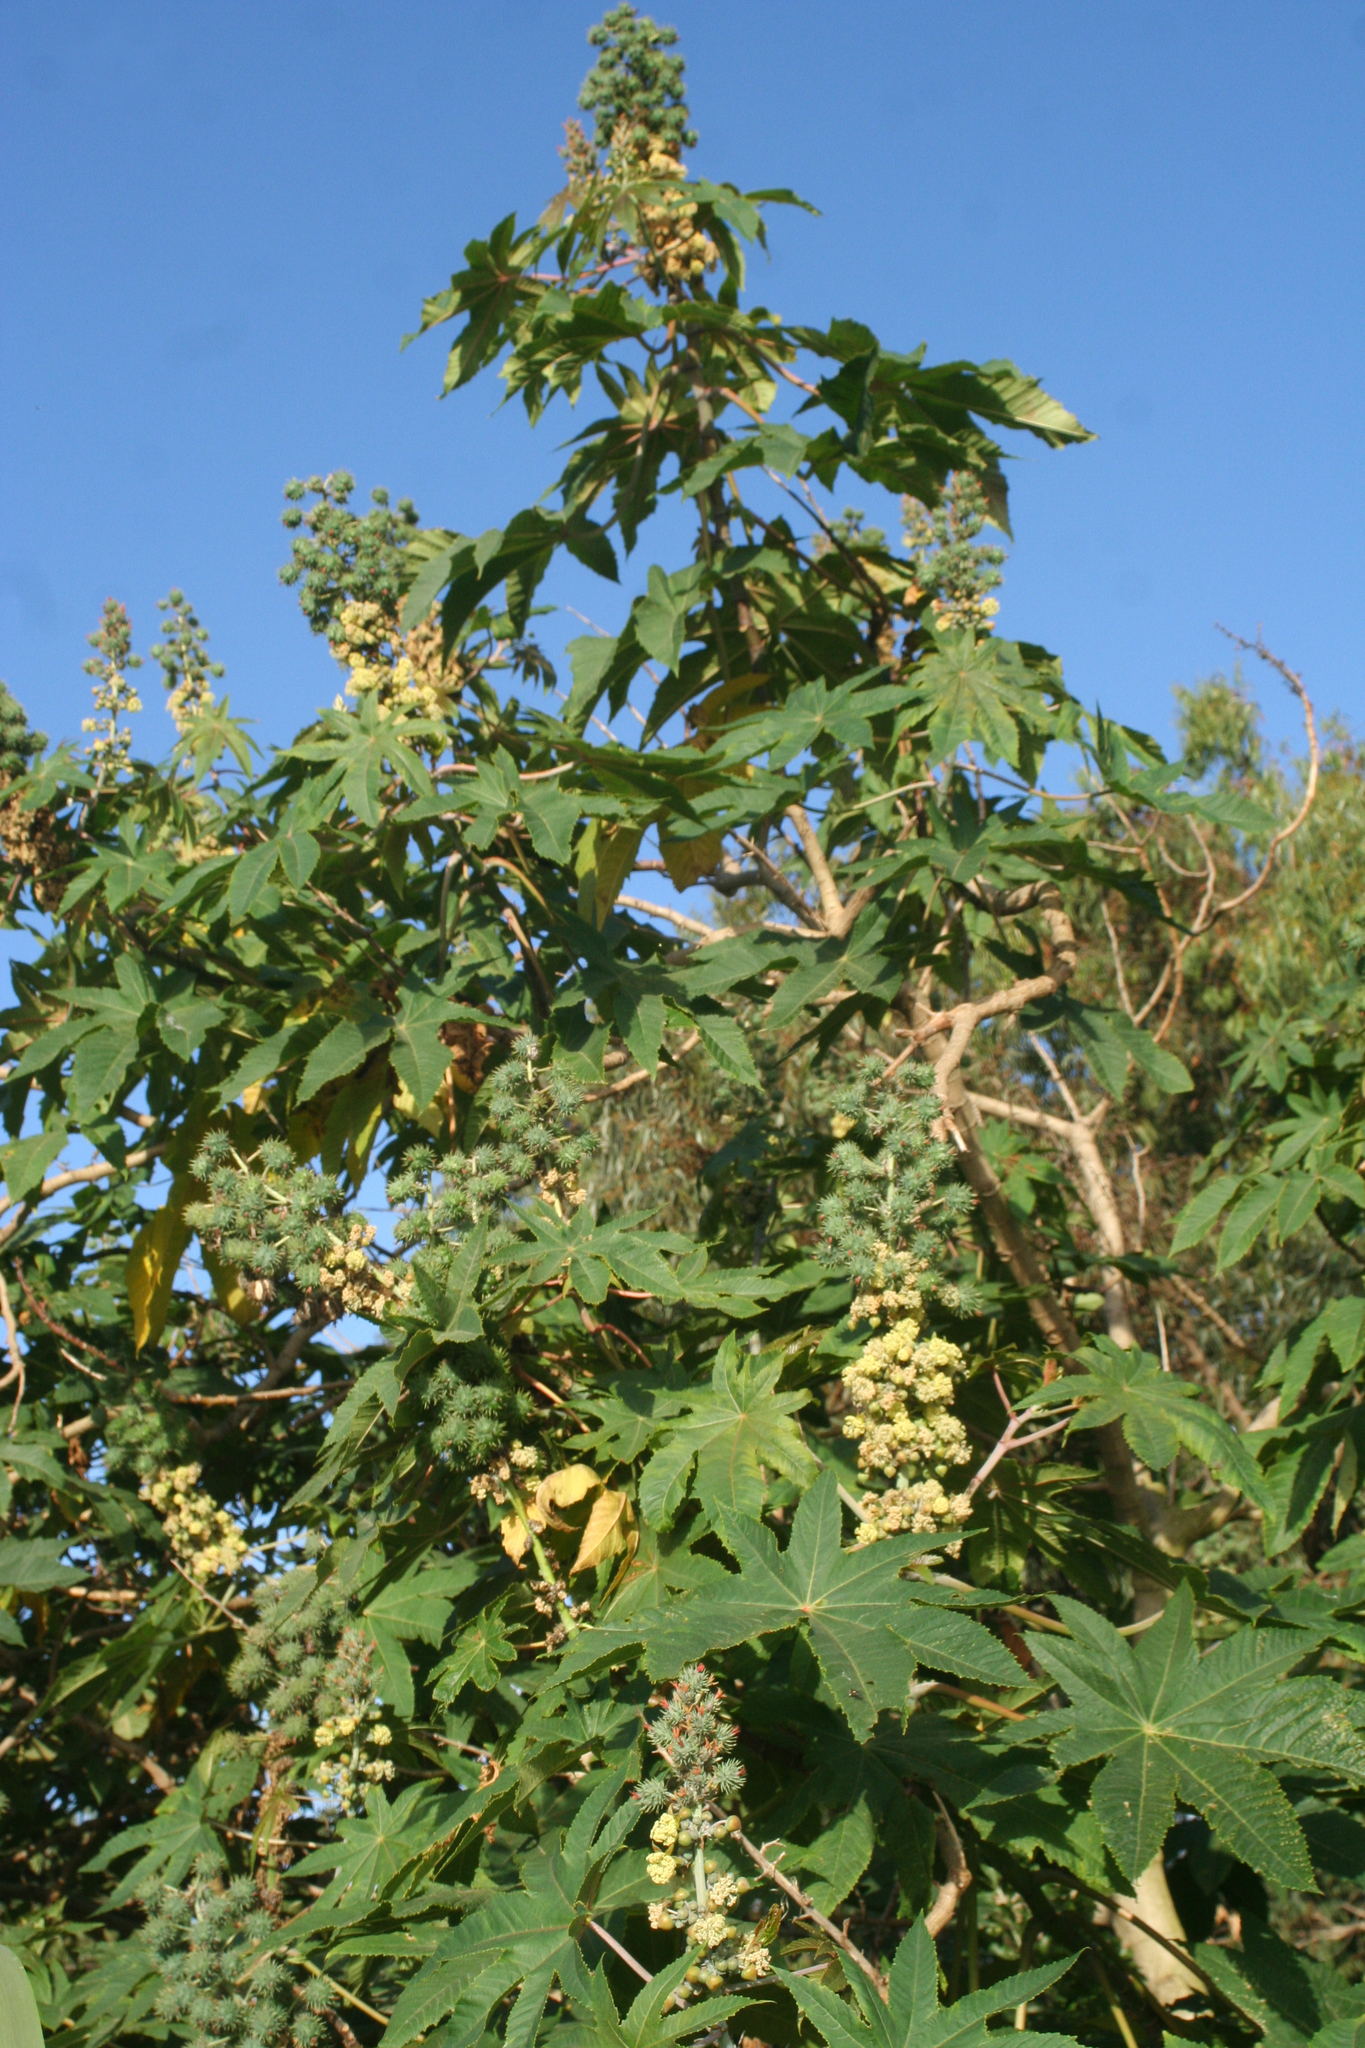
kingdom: Plantae
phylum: Tracheophyta
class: Magnoliopsida
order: Malpighiales
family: Euphorbiaceae
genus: Ricinus
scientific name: Ricinus communis
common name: Castor-oil-plant
